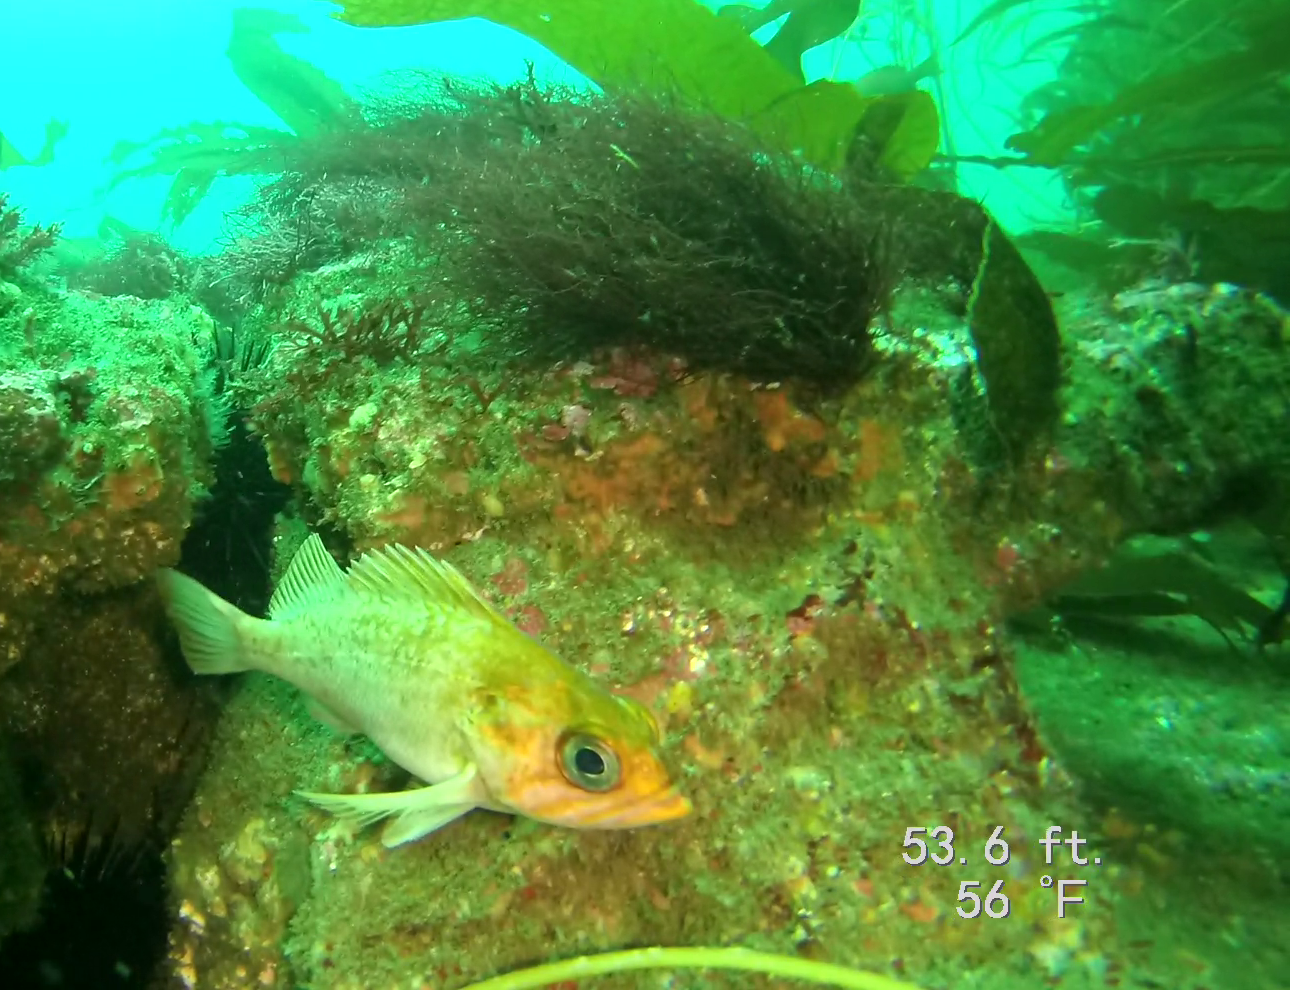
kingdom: Animalia
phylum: Chordata
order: Scorpaeniformes
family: Sebastidae
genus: Sebastes
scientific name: Sebastes atrovirens
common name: Kelp rockfish
